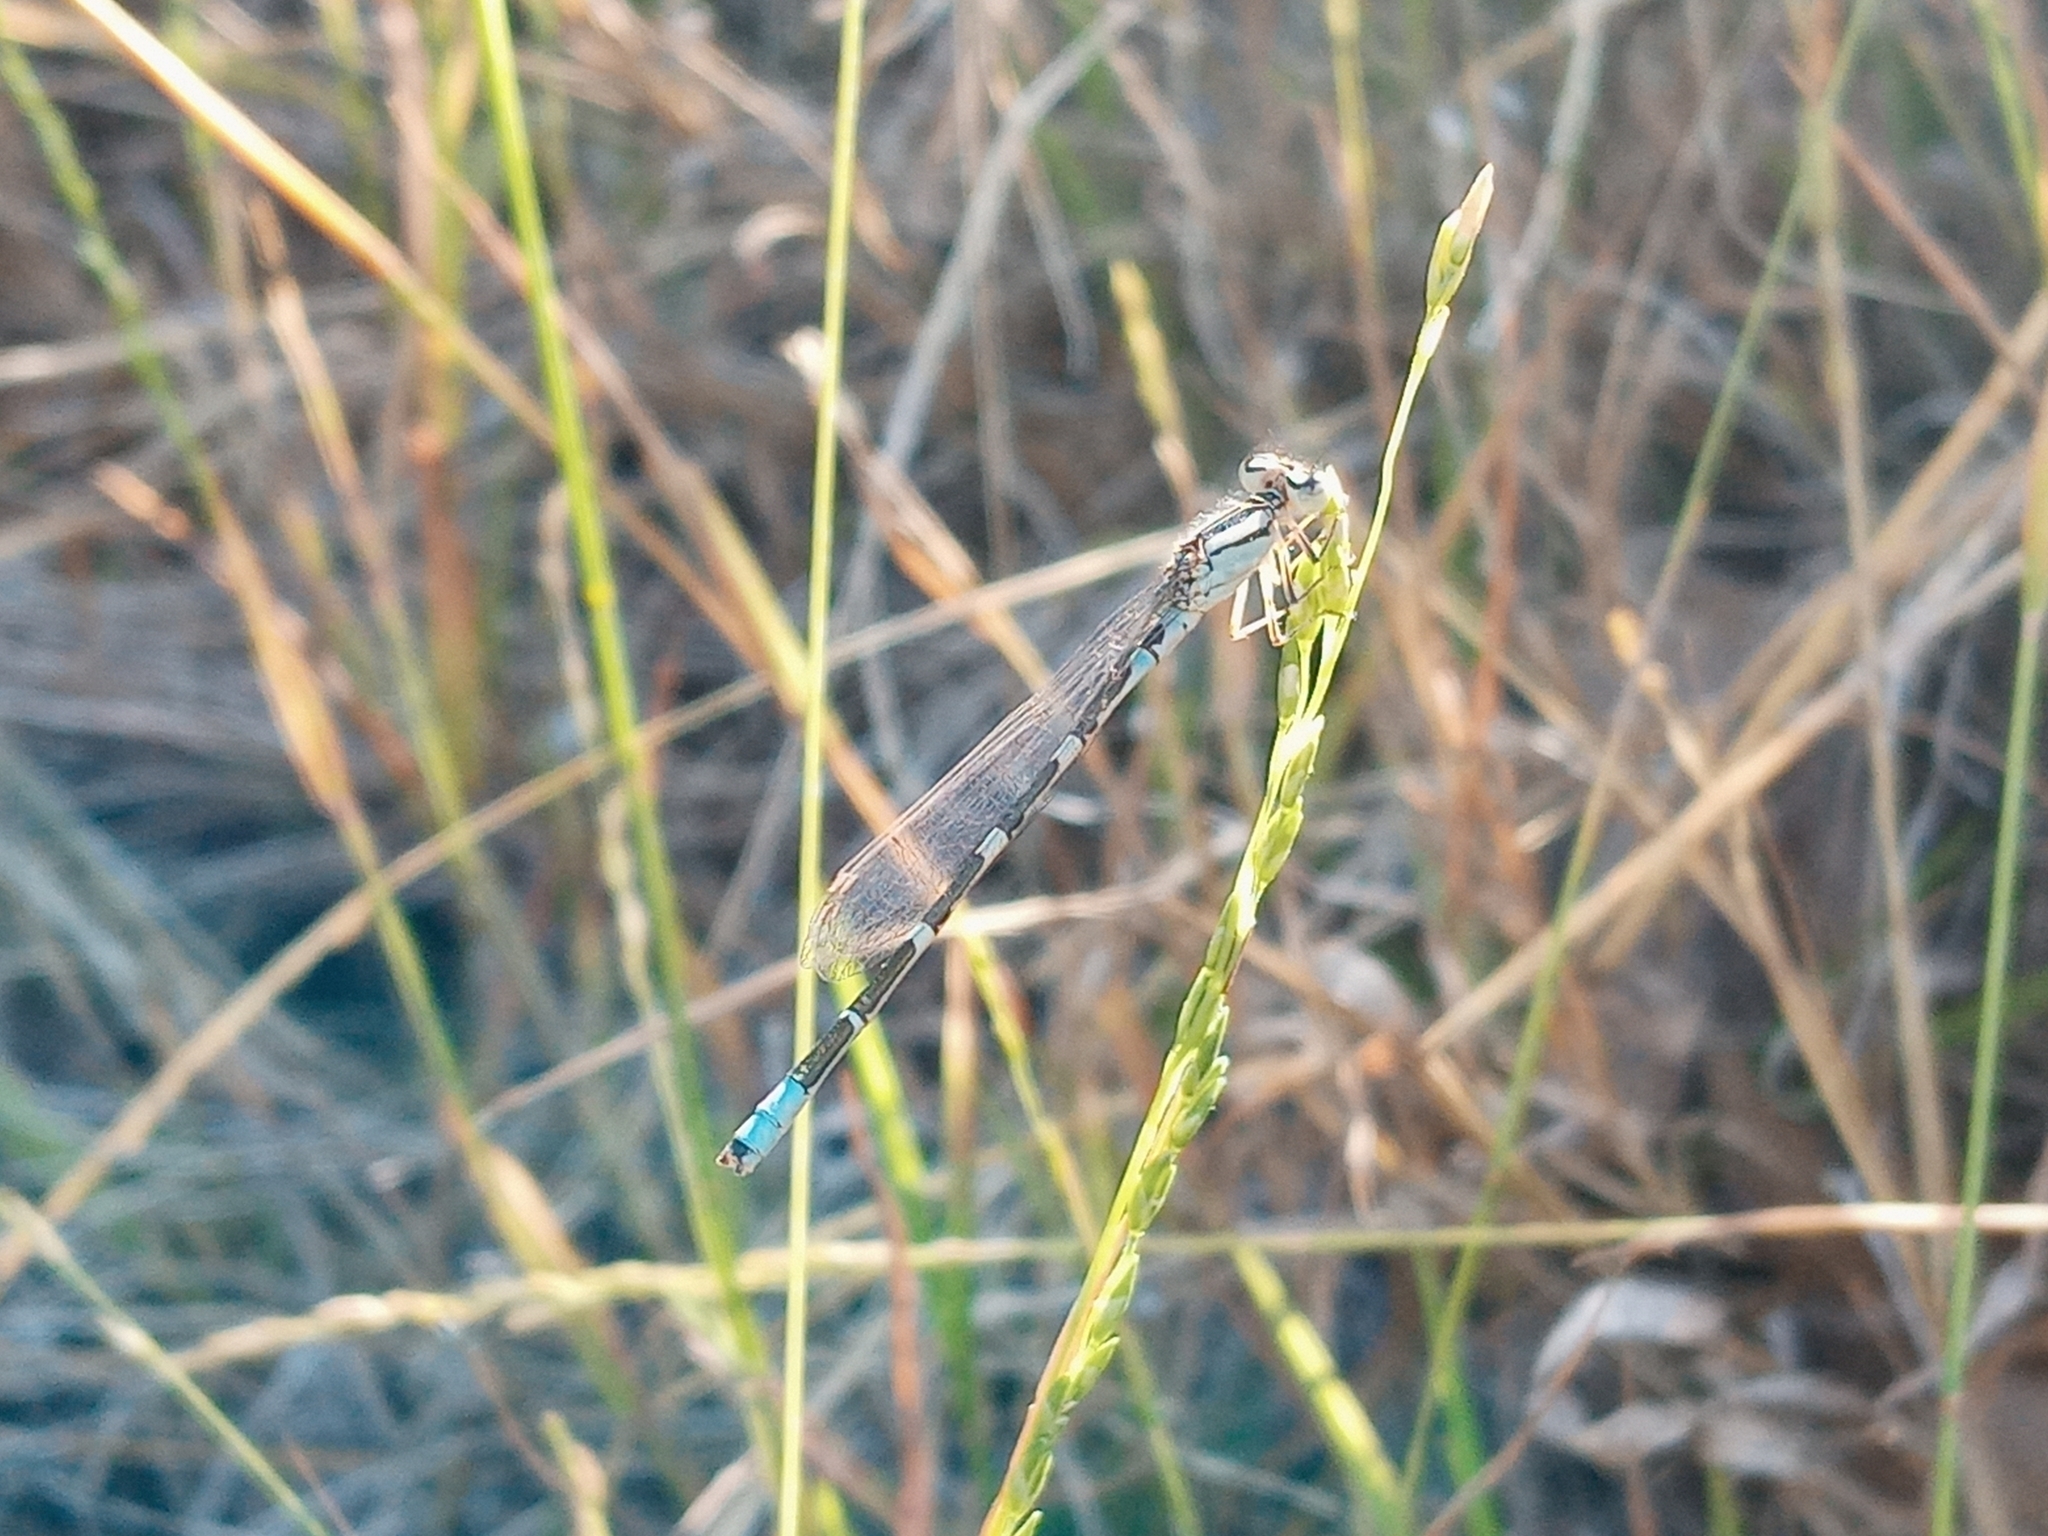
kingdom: Animalia
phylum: Arthropoda
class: Insecta
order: Odonata
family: Coenagrionidae
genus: Enallagma
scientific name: Enallagma carunculatum
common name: Tule bluet
